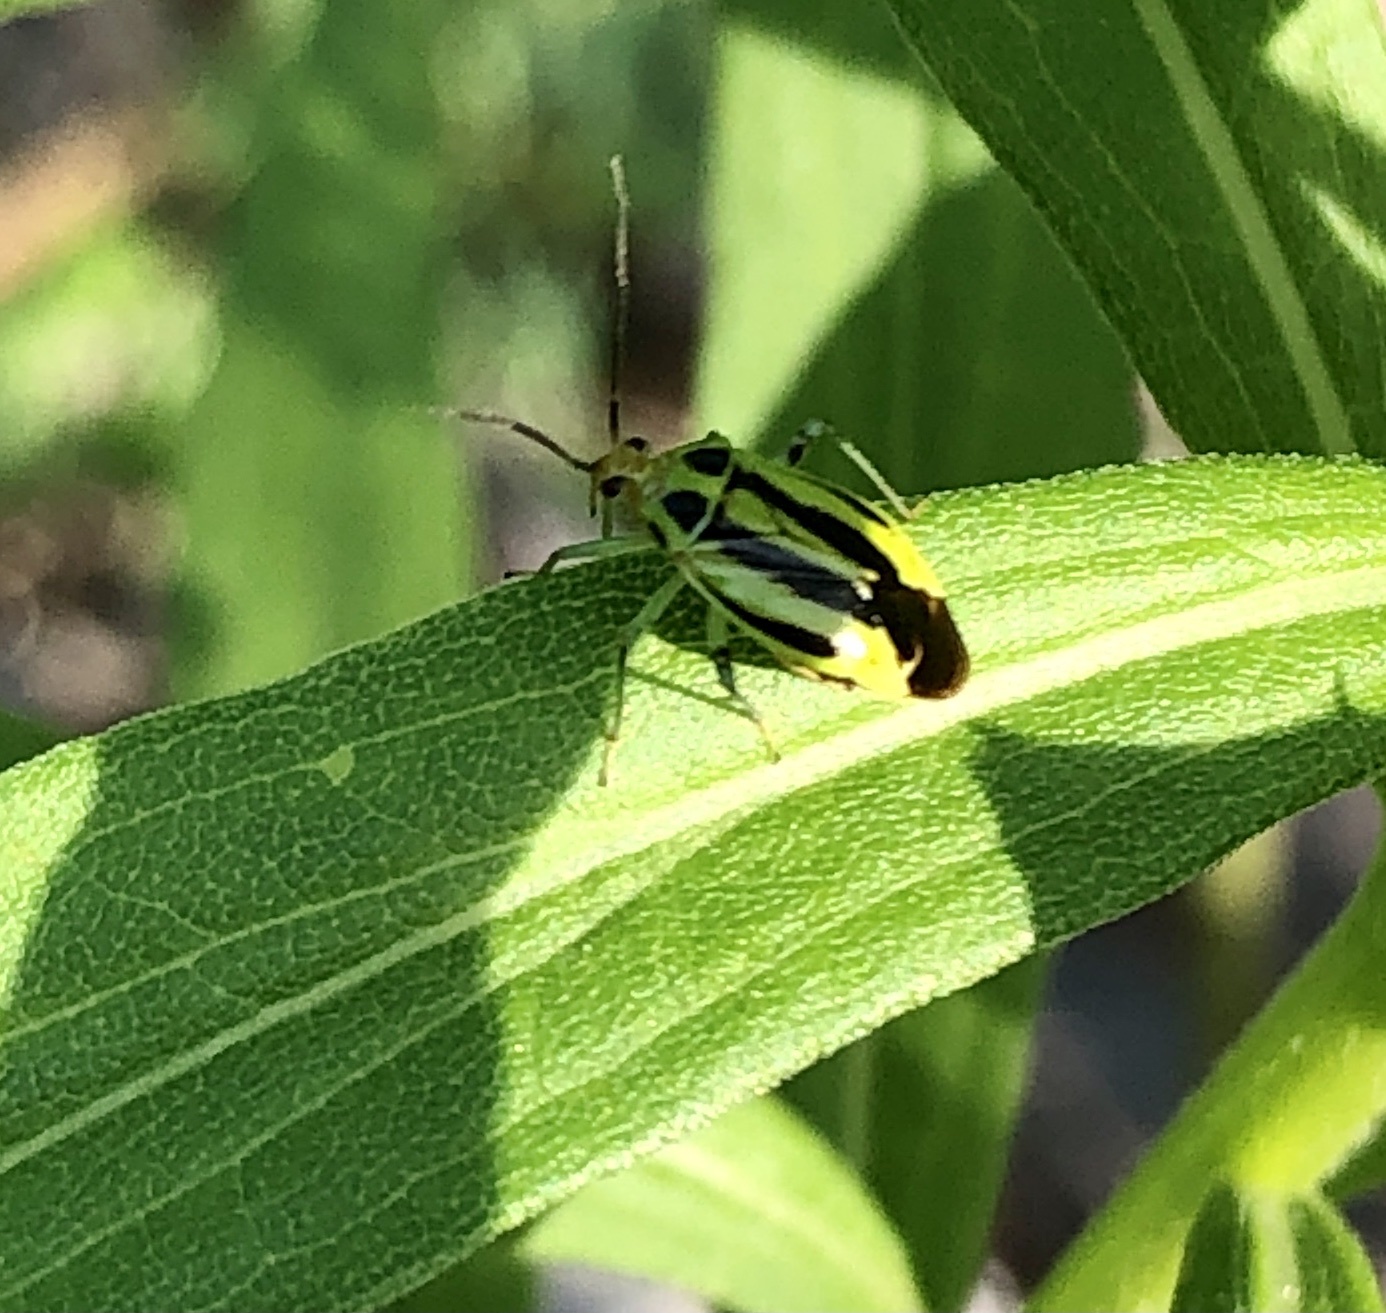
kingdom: Animalia
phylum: Arthropoda
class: Insecta
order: Hemiptera
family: Miridae
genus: Poecilocapsus
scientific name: Poecilocapsus lineatus
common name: Four-lined plant bug
